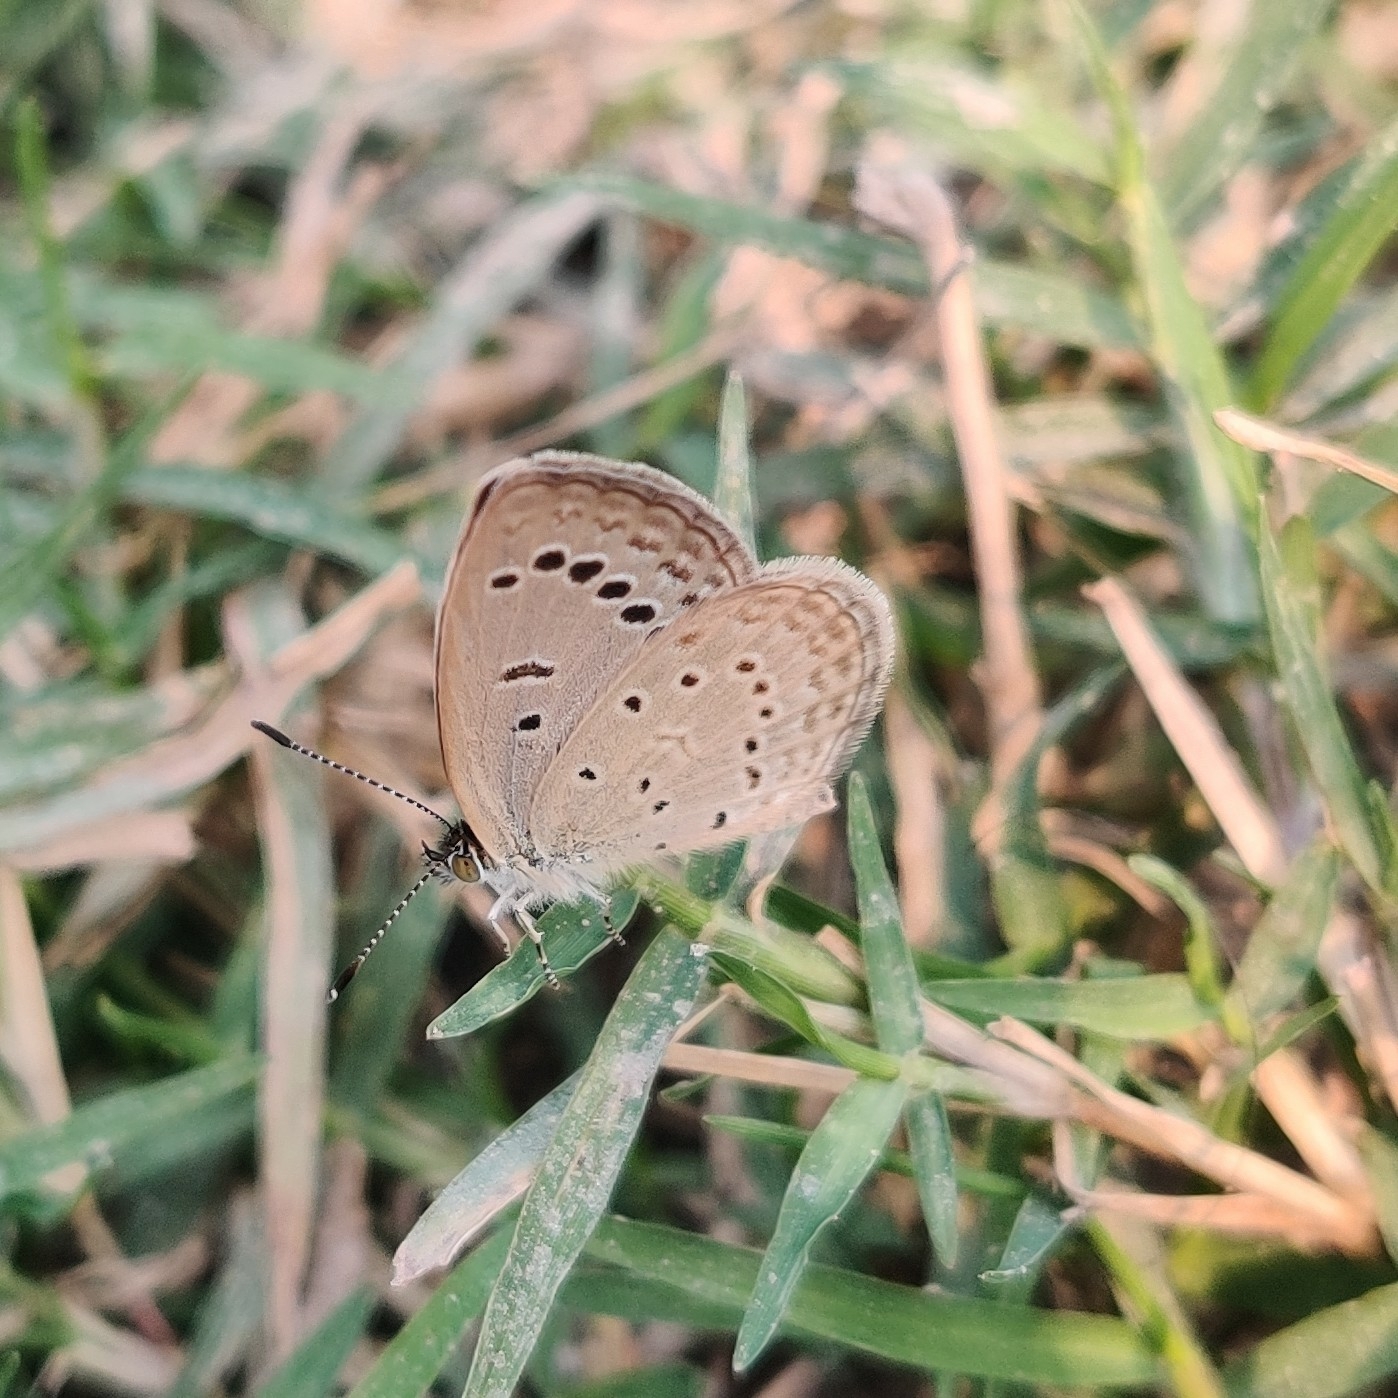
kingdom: Animalia
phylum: Arthropoda
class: Insecta
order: Lepidoptera
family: Lycaenidae
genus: Zizeeria
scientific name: Zizeeria karsandra
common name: Dark grass blue
